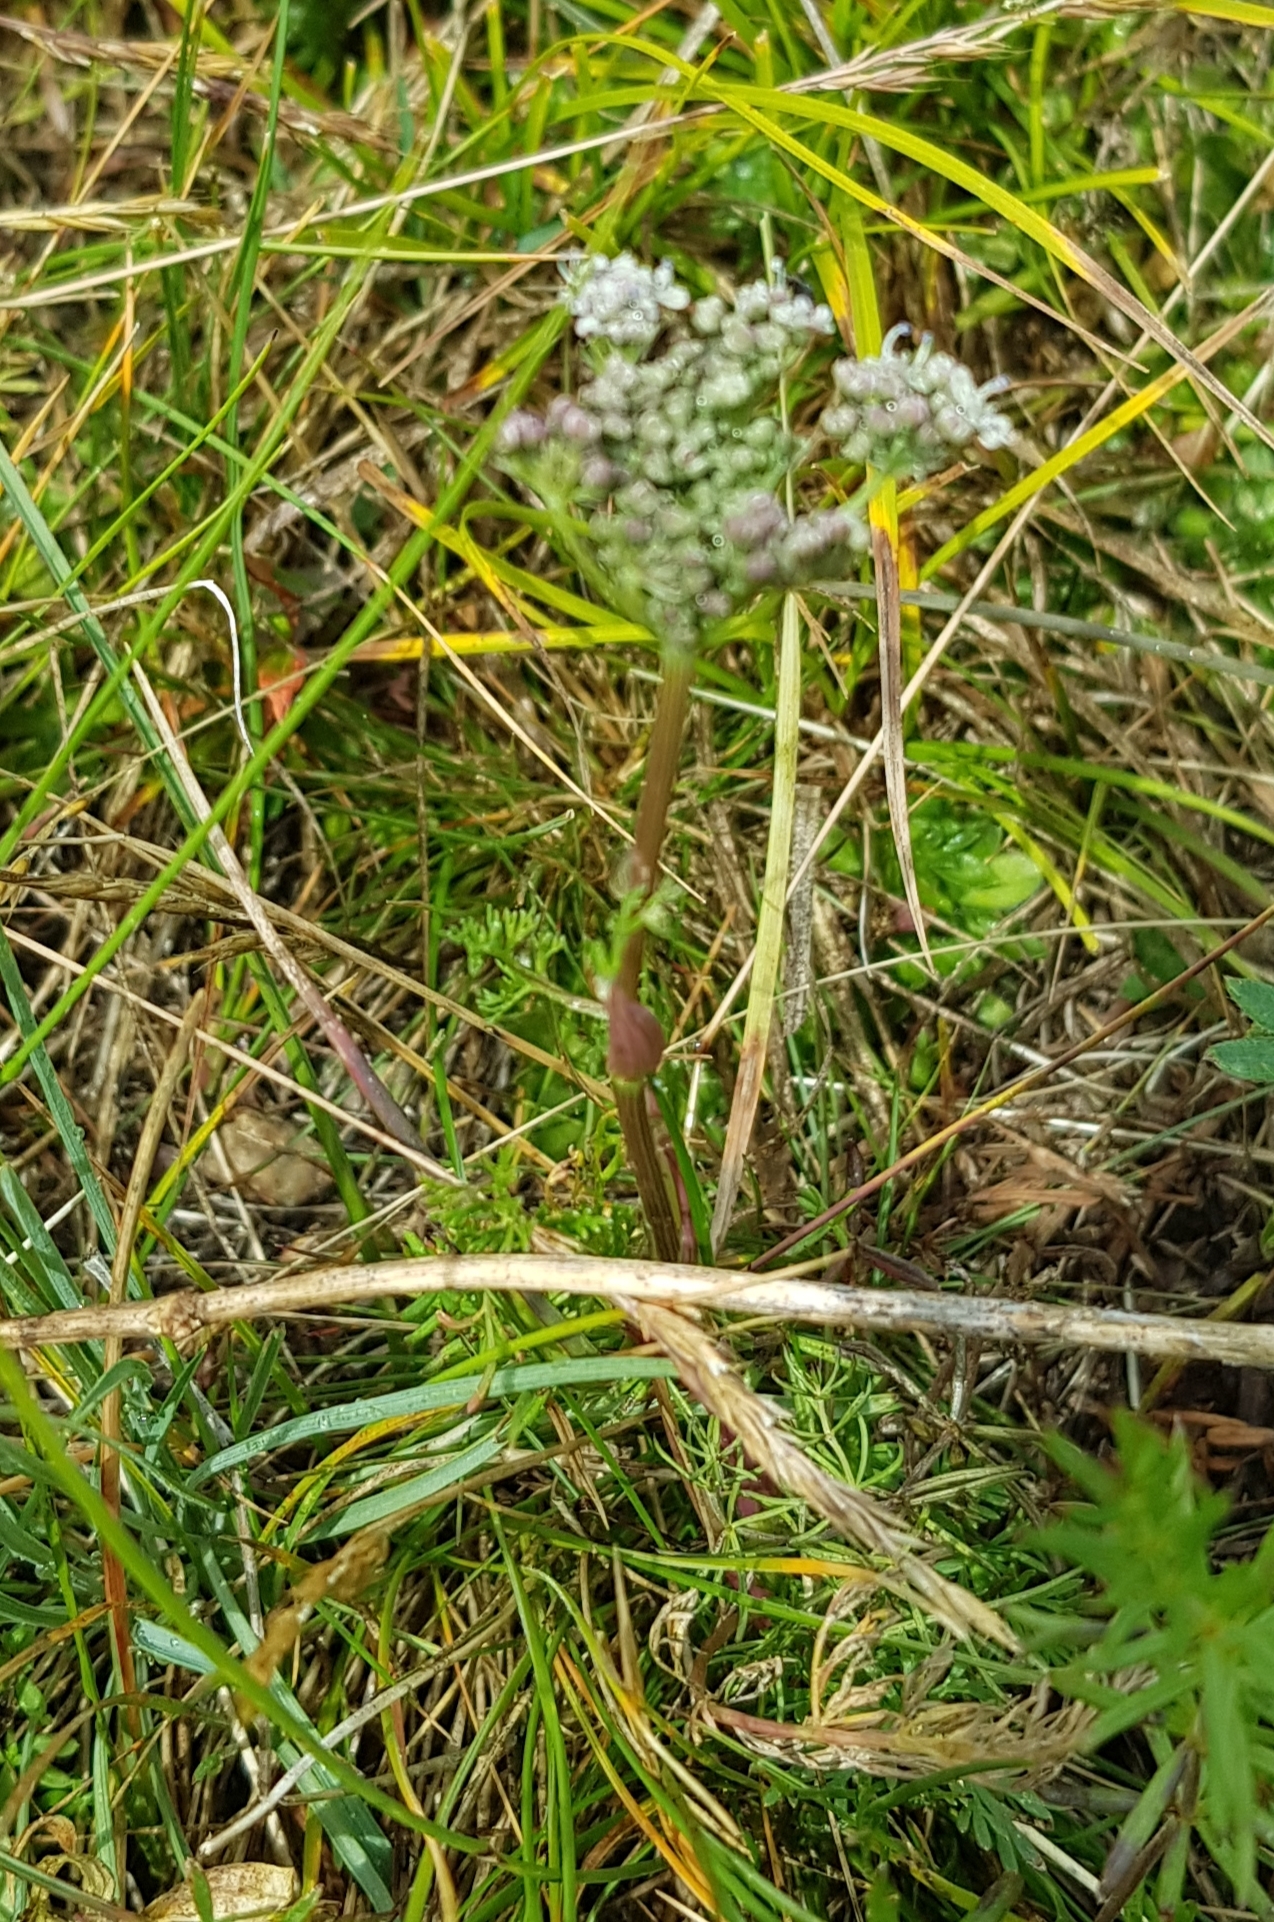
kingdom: Plantae
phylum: Tracheophyta
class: Magnoliopsida
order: Apiales
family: Apiaceae
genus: Kitagawia
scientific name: Kitagawia baicalensis
